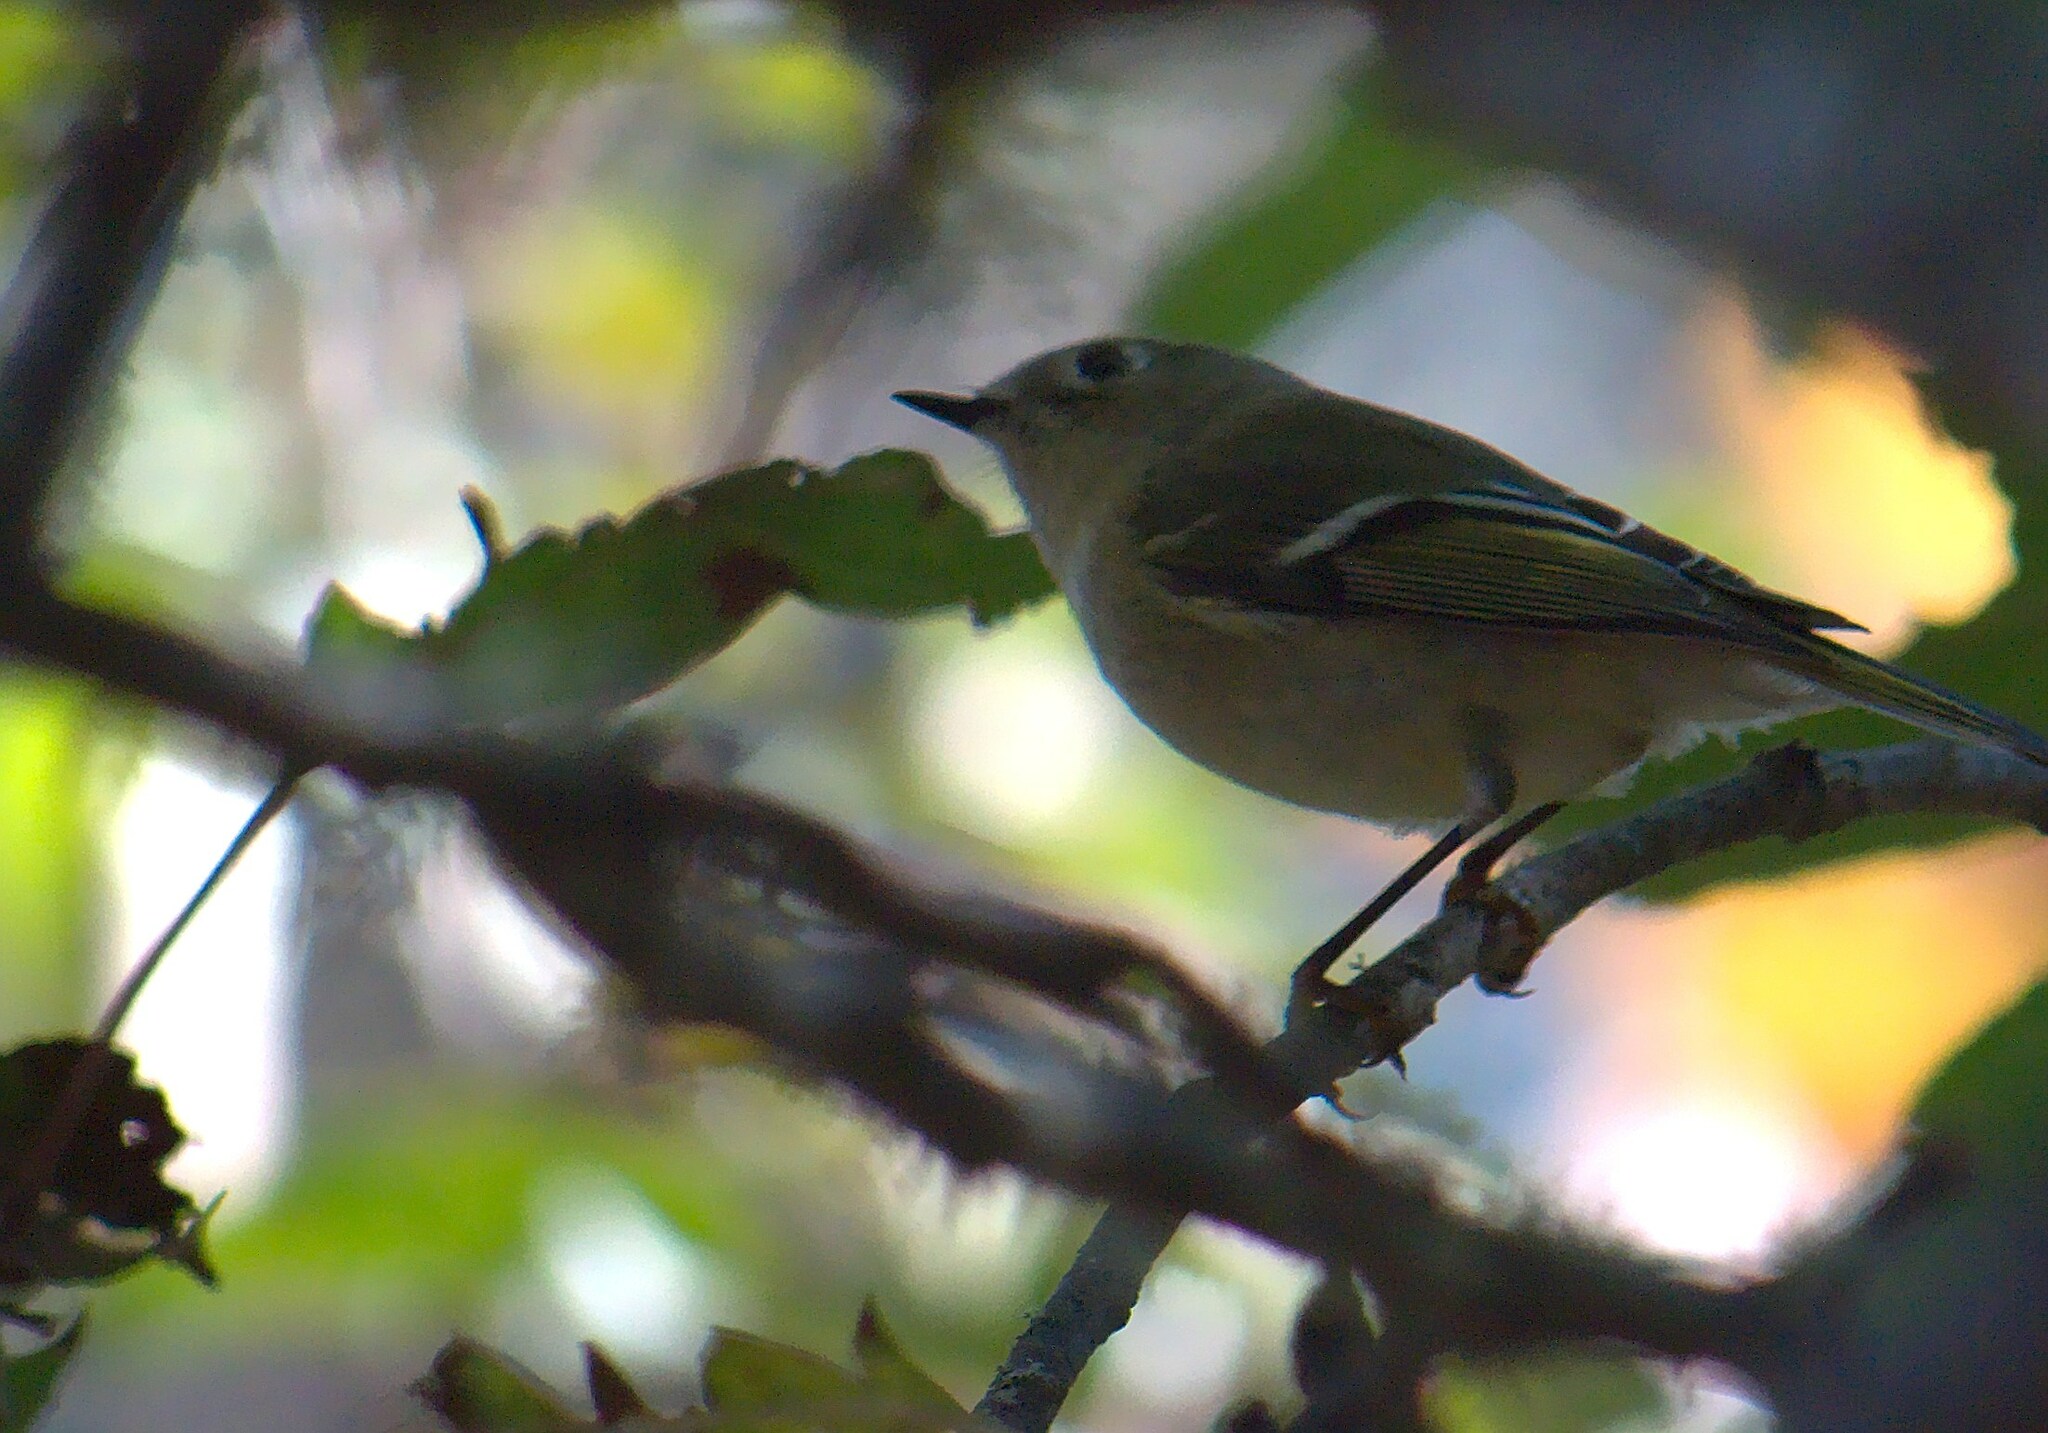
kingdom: Animalia
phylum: Chordata
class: Aves
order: Passeriformes
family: Regulidae
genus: Regulus
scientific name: Regulus calendula
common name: Ruby-crowned kinglet
